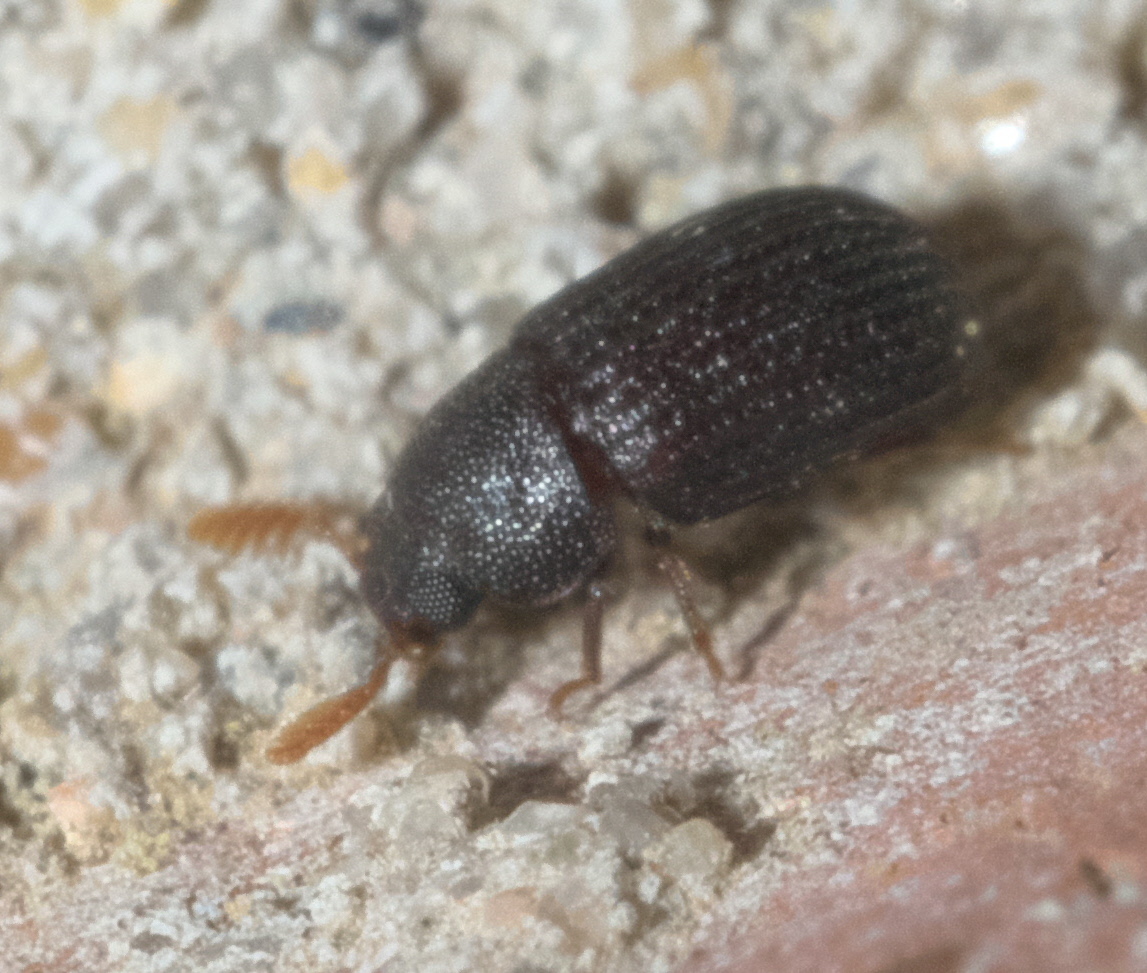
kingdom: Animalia
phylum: Arthropoda
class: Insecta
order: Coleoptera
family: Tenebrionidae
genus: Rhipidandrus
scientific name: Rhipidandrus paradoxus
